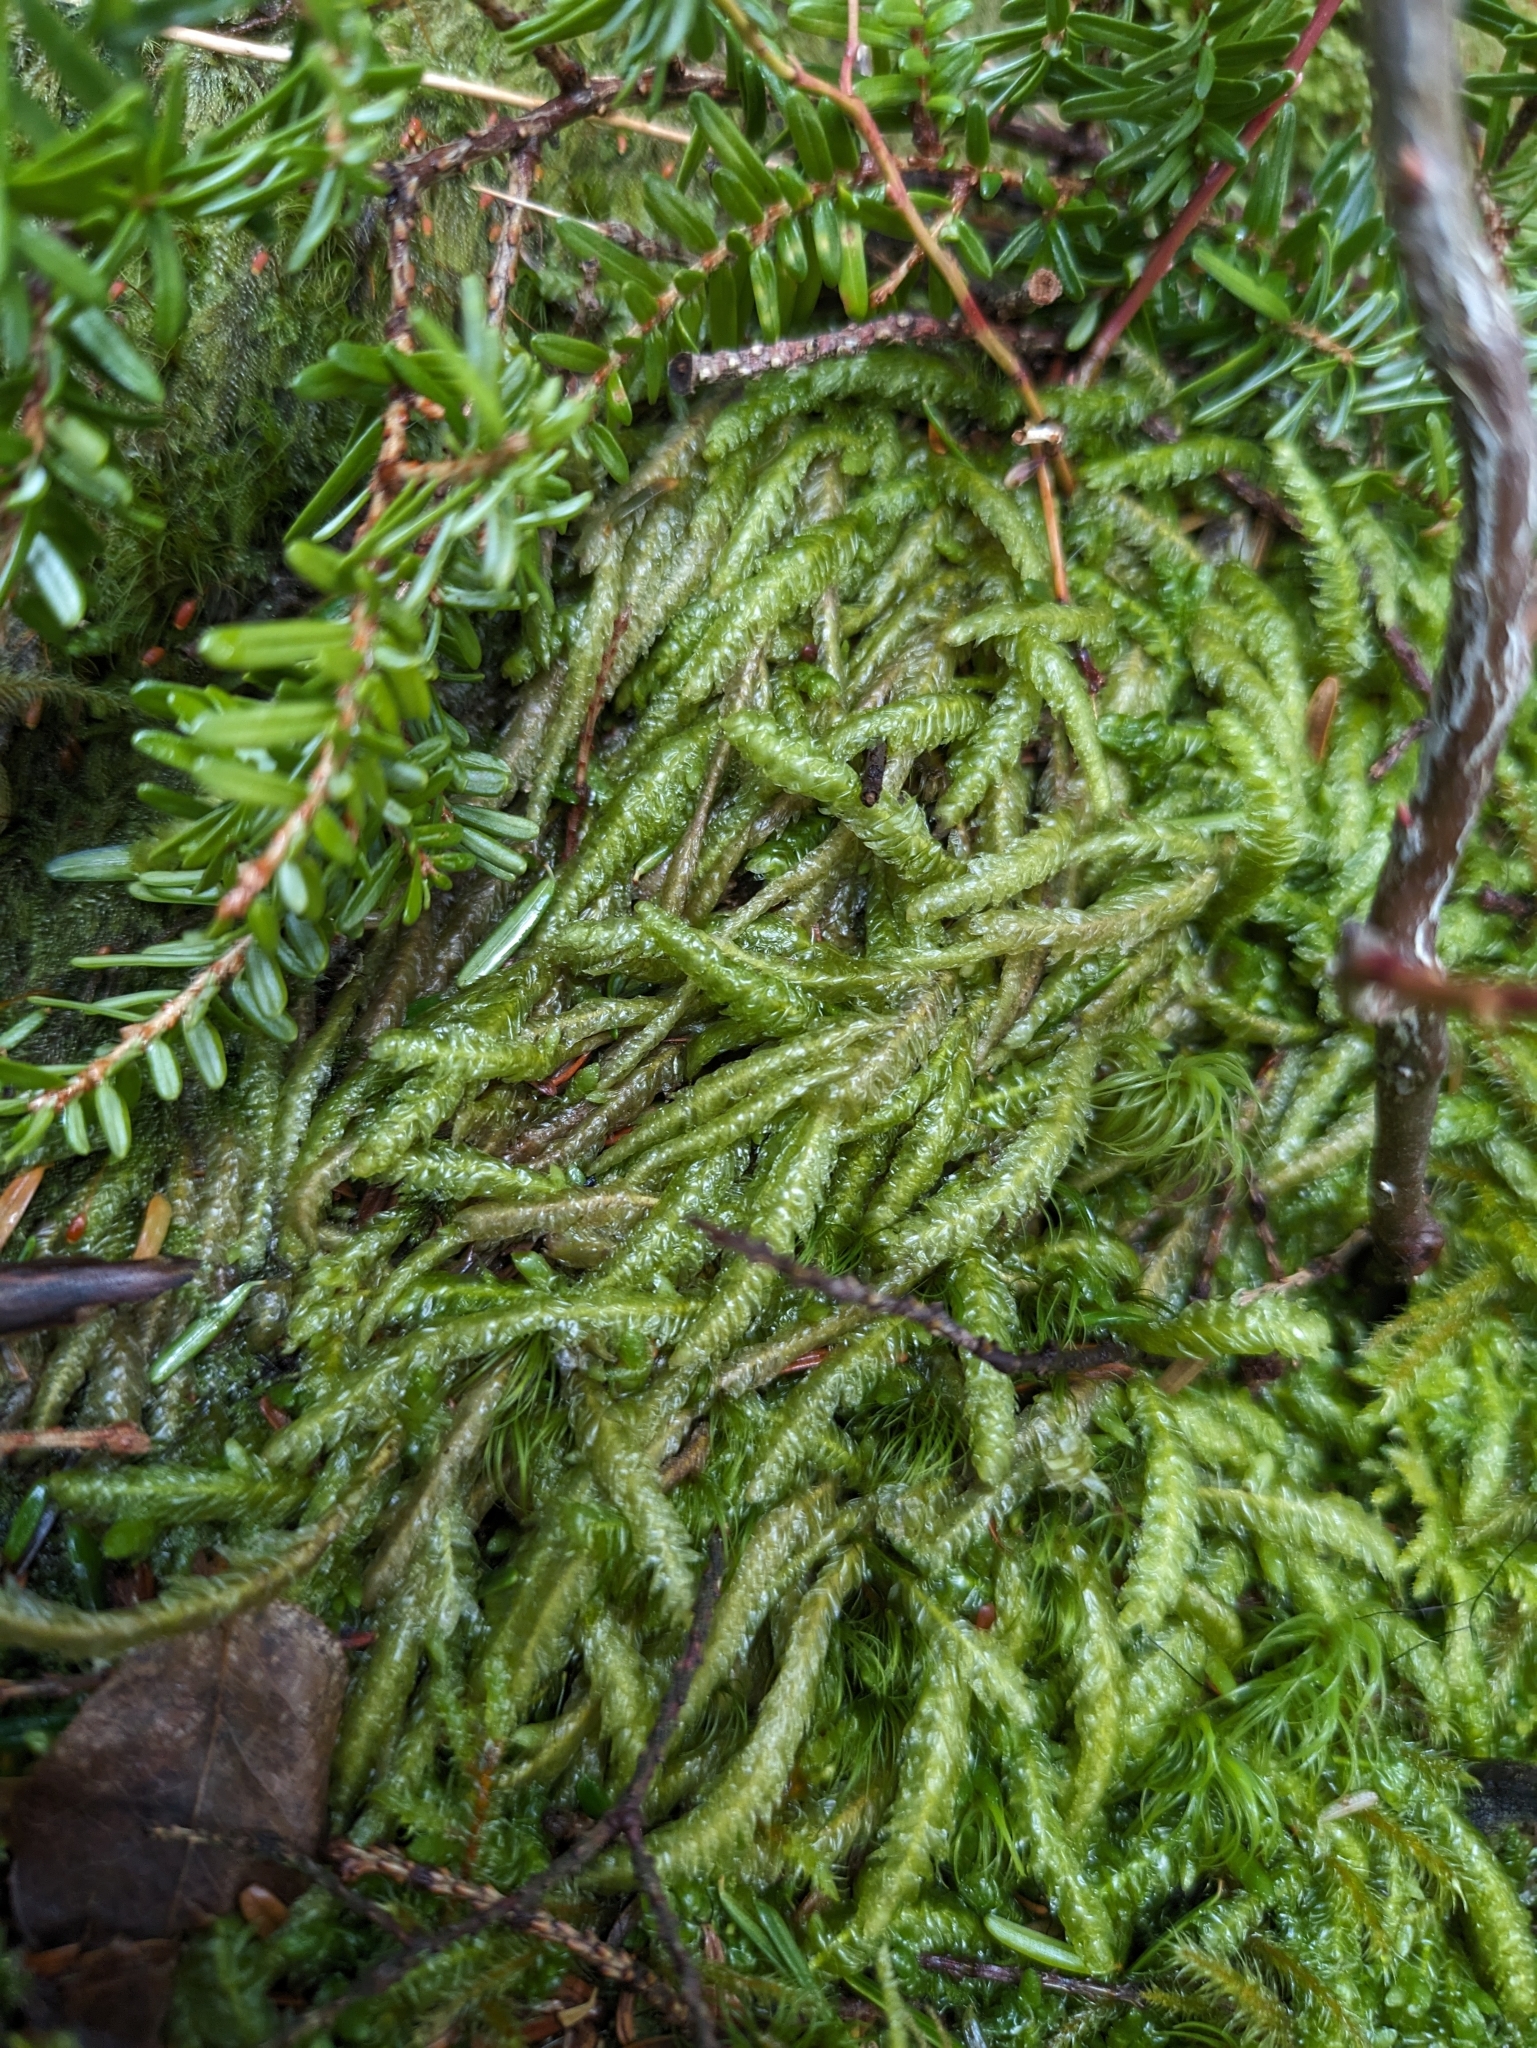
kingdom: Plantae
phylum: Bryophyta
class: Bryopsida
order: Hypnales
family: Plagiotheciaceae
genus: Plagiothecium
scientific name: Plagiothecium undulatum
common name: Waved silk-moss
